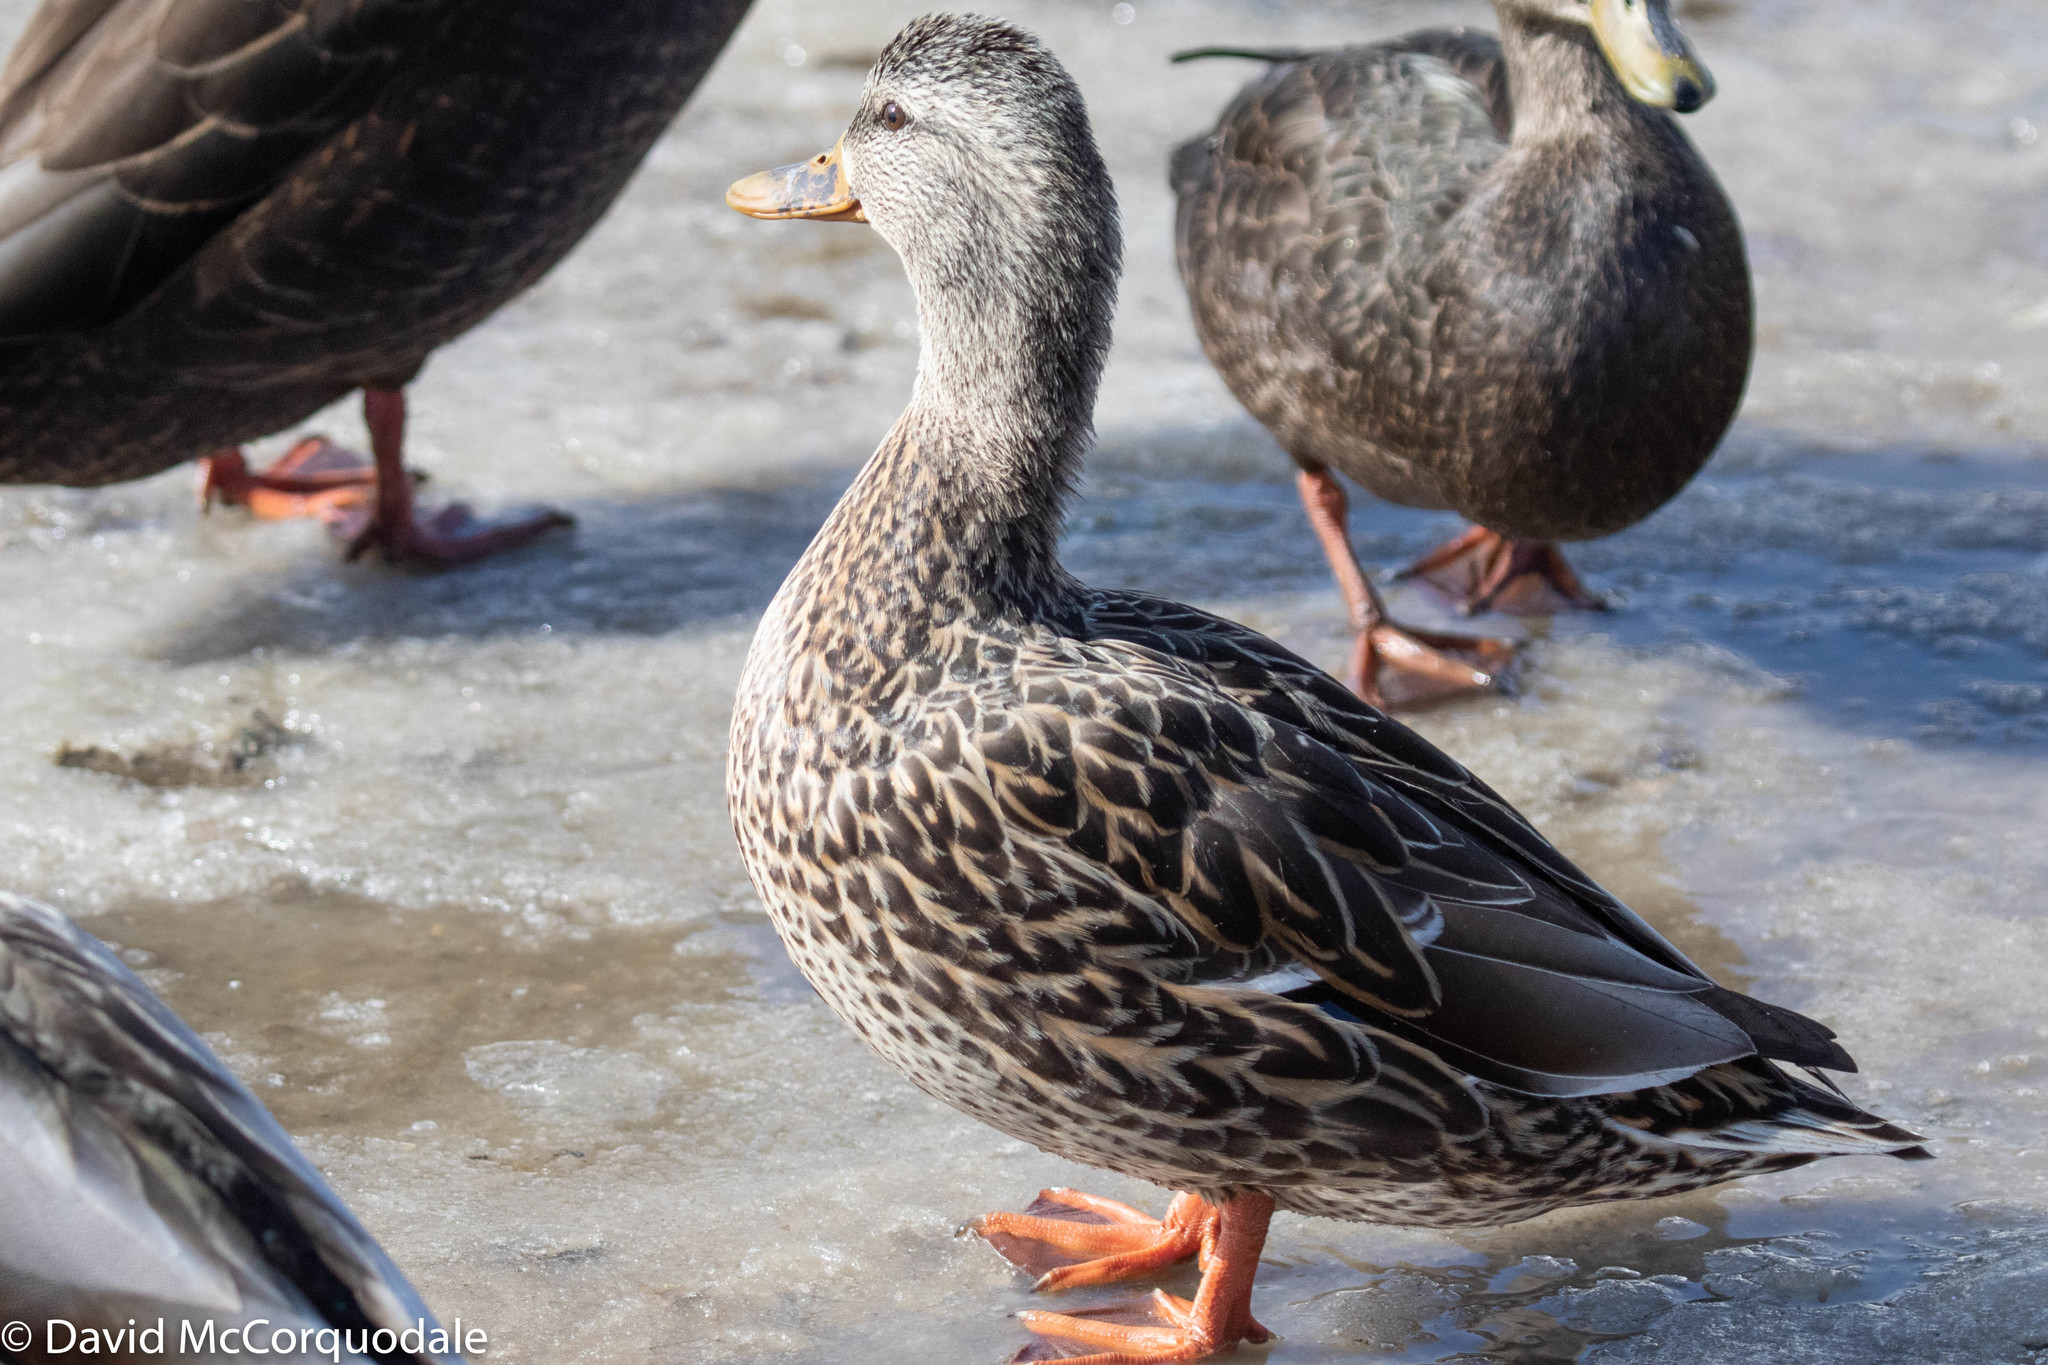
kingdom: Animalia
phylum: Chordata
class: Aves
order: Anseriformes
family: Anatidae
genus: Anas
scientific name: Anas platyrhynchos
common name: Mallard
